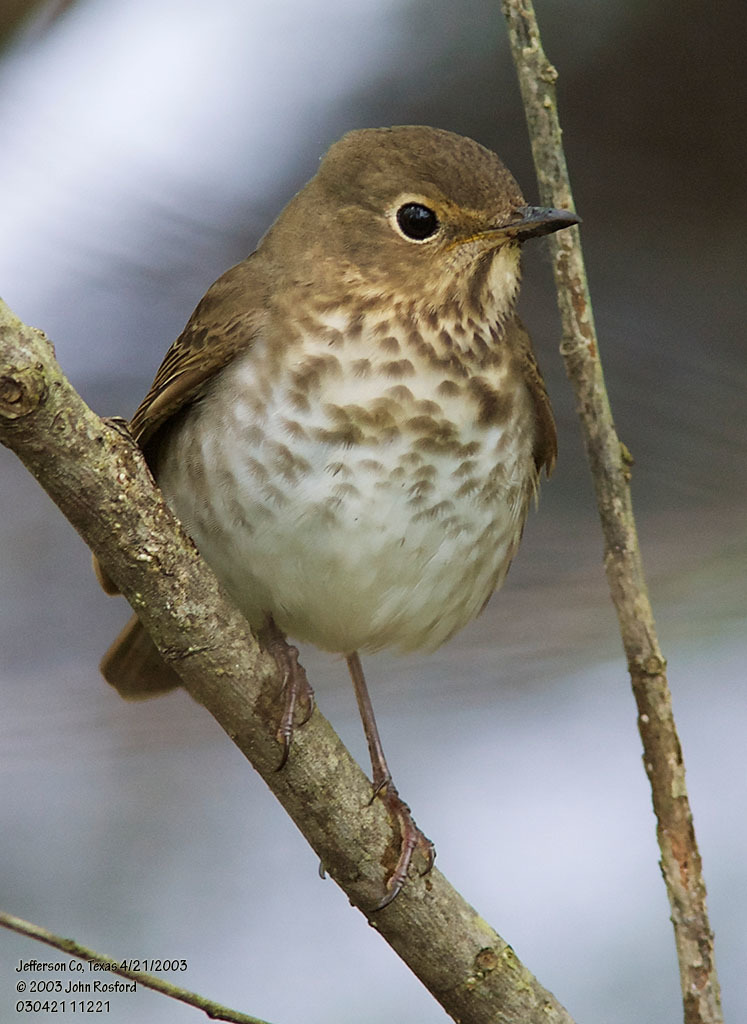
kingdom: Animalia
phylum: Chordata
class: Aves
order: Passeriformes
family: Turdidae
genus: Catharus
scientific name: Catharus guttatus
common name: Hermit thrush
